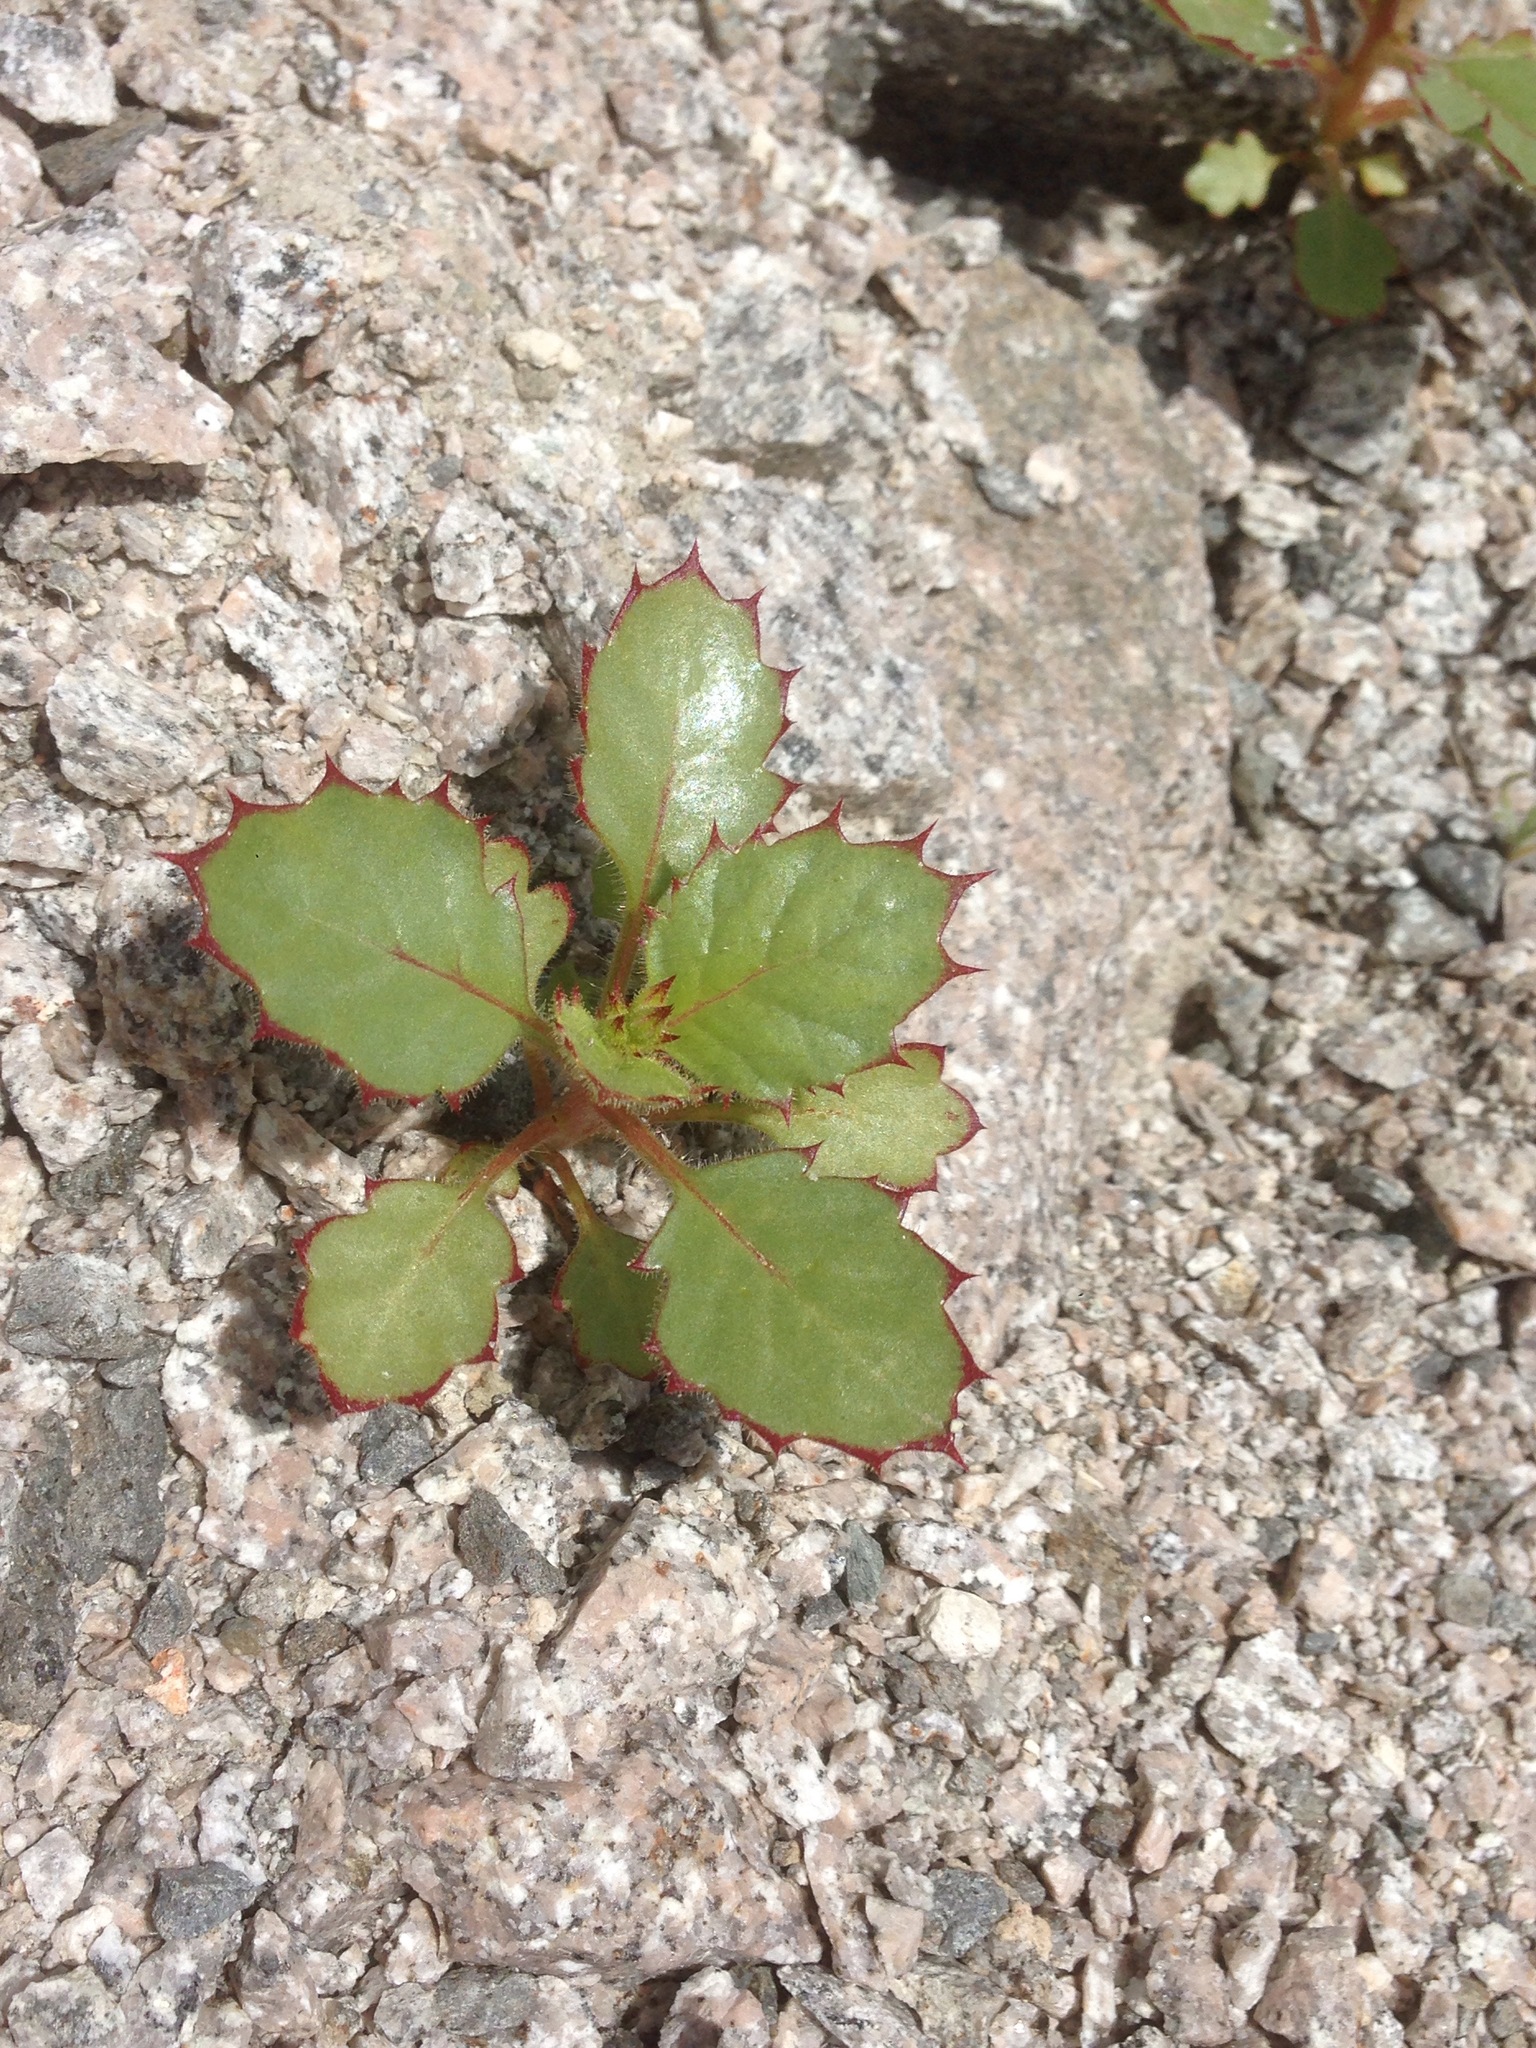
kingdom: Plantae
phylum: Tracheophyta
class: Magnoliopsida
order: Ericales
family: Polemoniaceae
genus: Aliciella
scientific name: Aliciella latifolia
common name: Broad-leaf gilia
